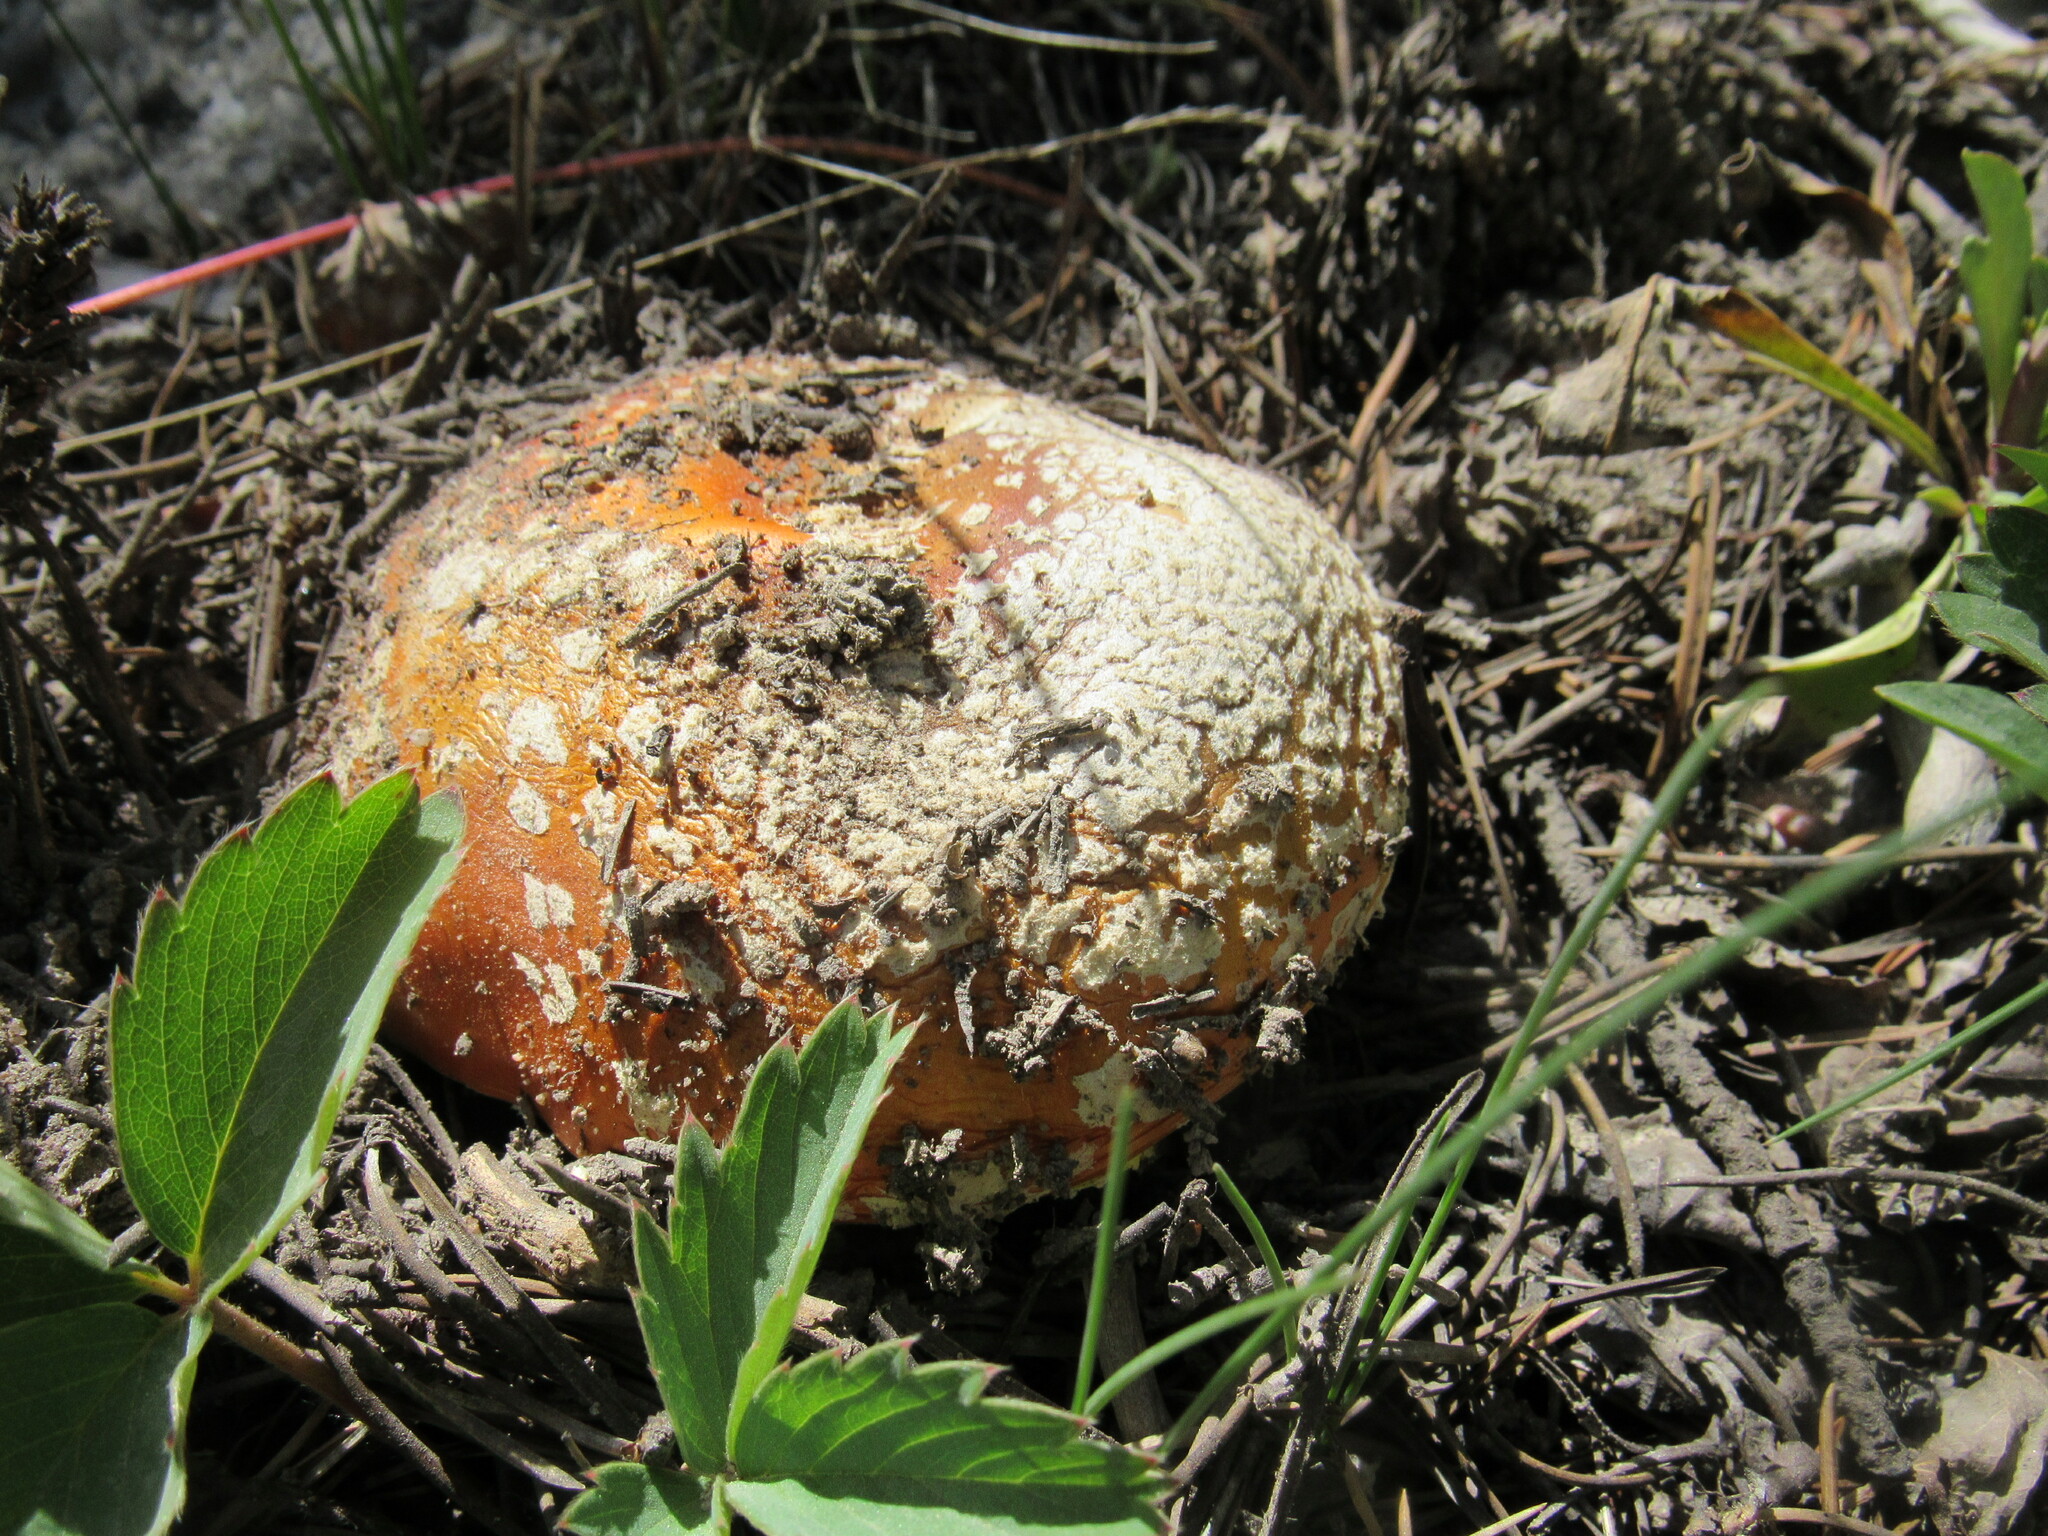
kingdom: Fungi
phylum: Basidiomycota
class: Agaricomycetes
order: Agaricales
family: Amanitaceae
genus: Amanita
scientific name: Amanita muscaria
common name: Fly agaric
